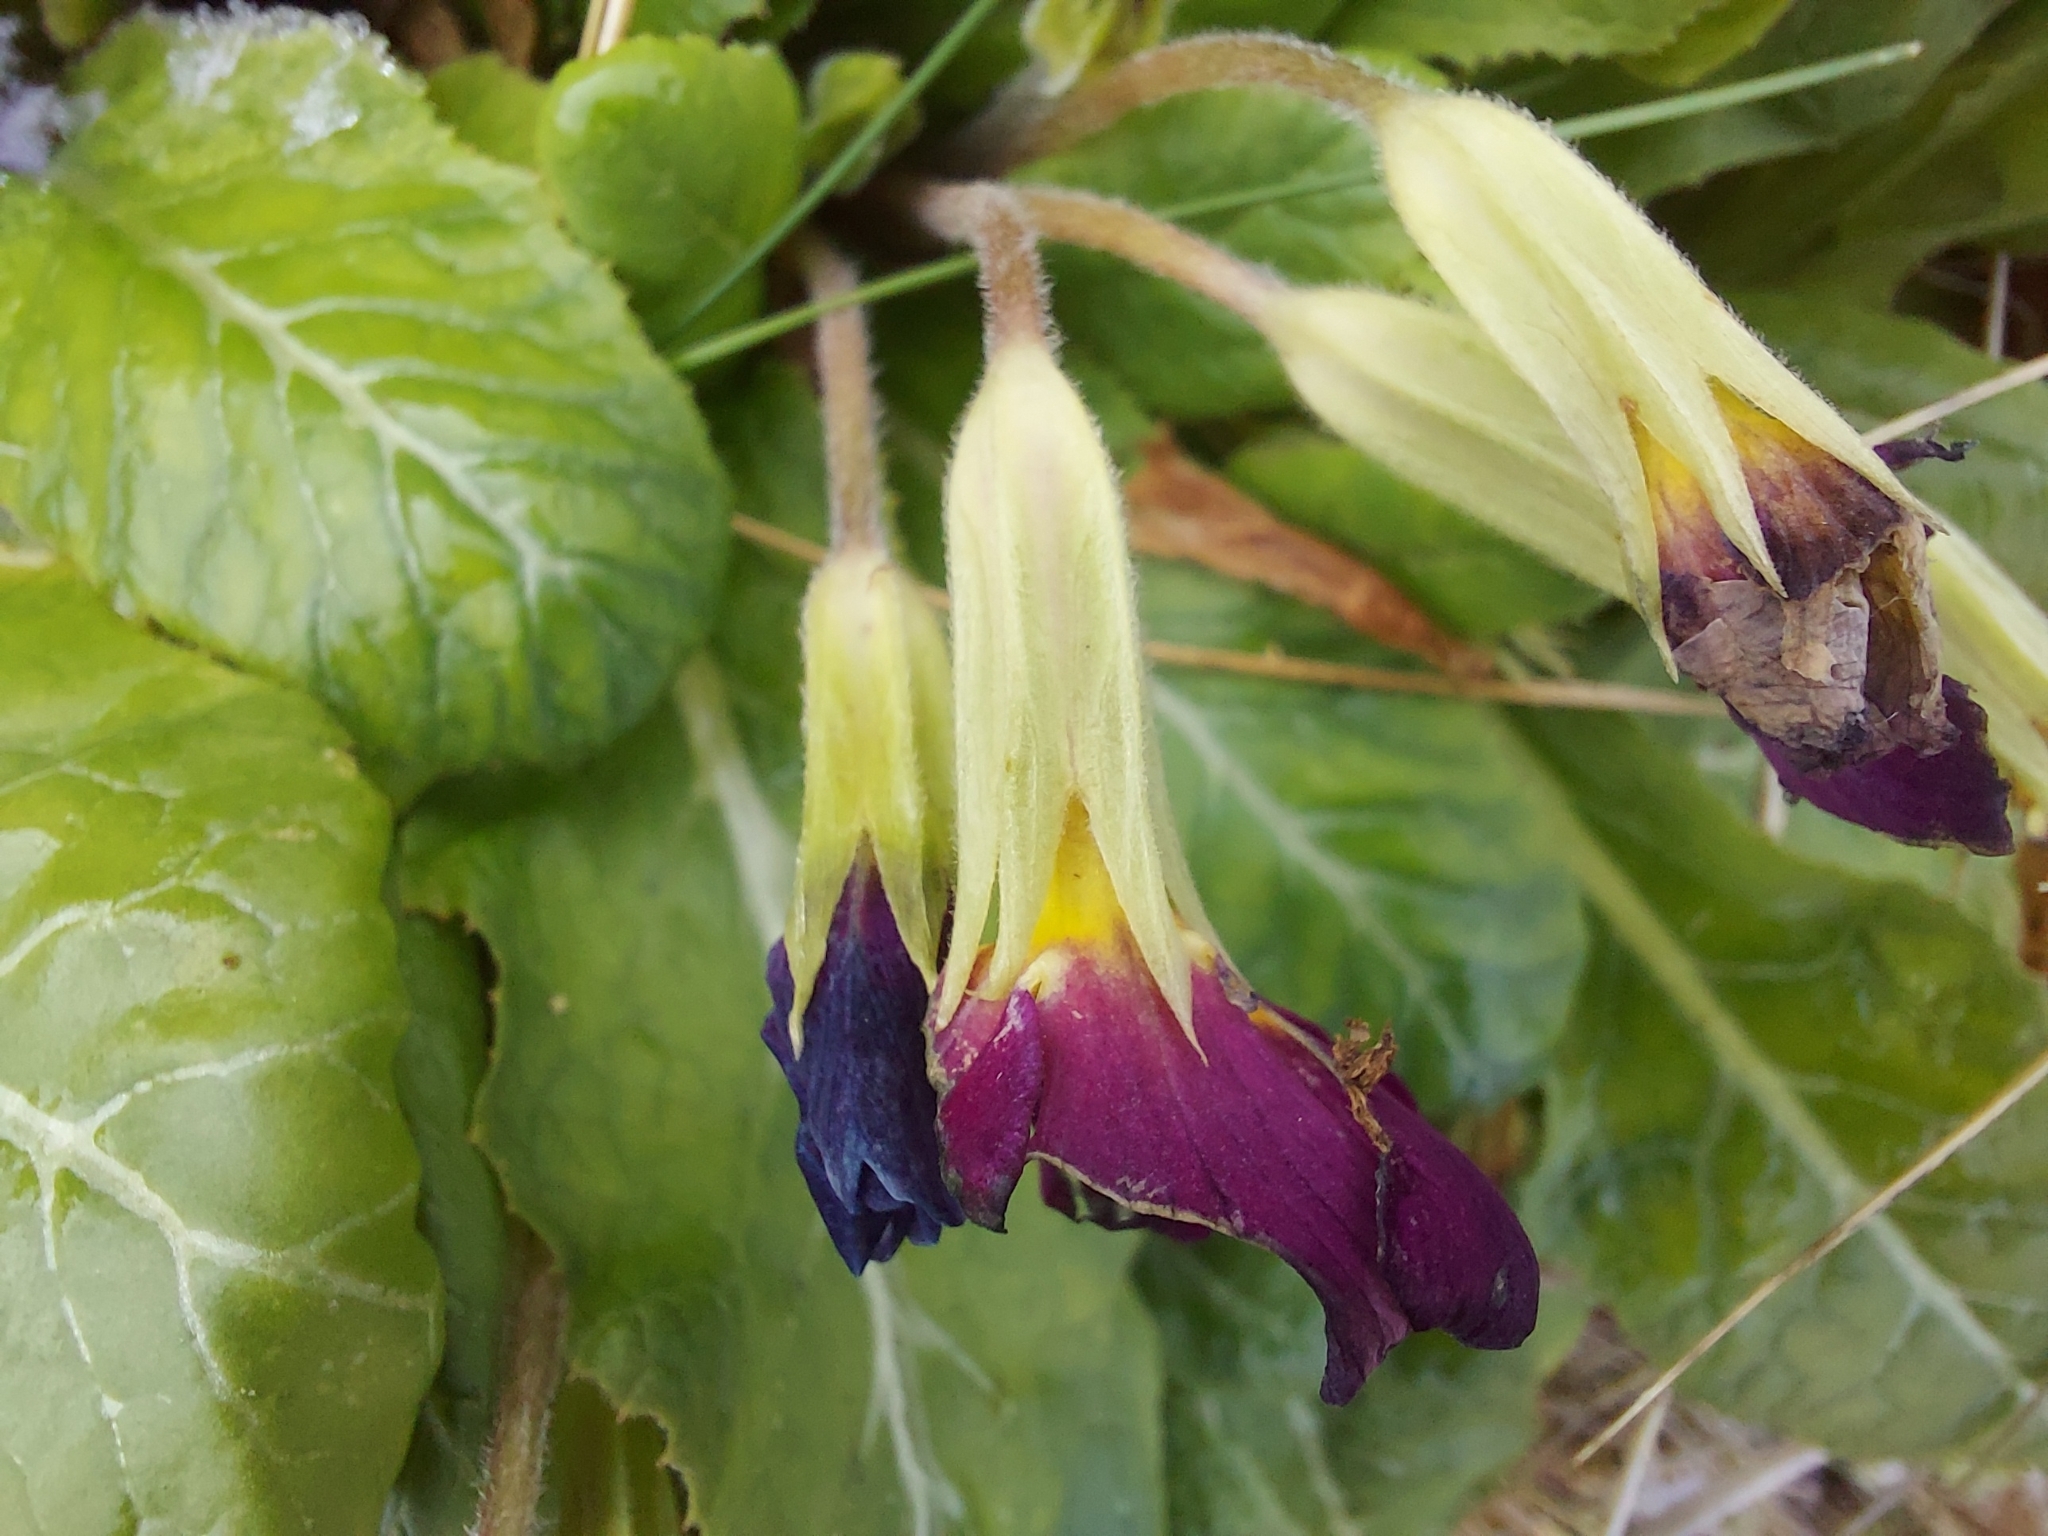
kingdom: Plantae
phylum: Tracheophyta
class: Magnoliopsida
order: Ericales
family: Primulaceae
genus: Primula
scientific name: Primula vulgaris
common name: Primrose
